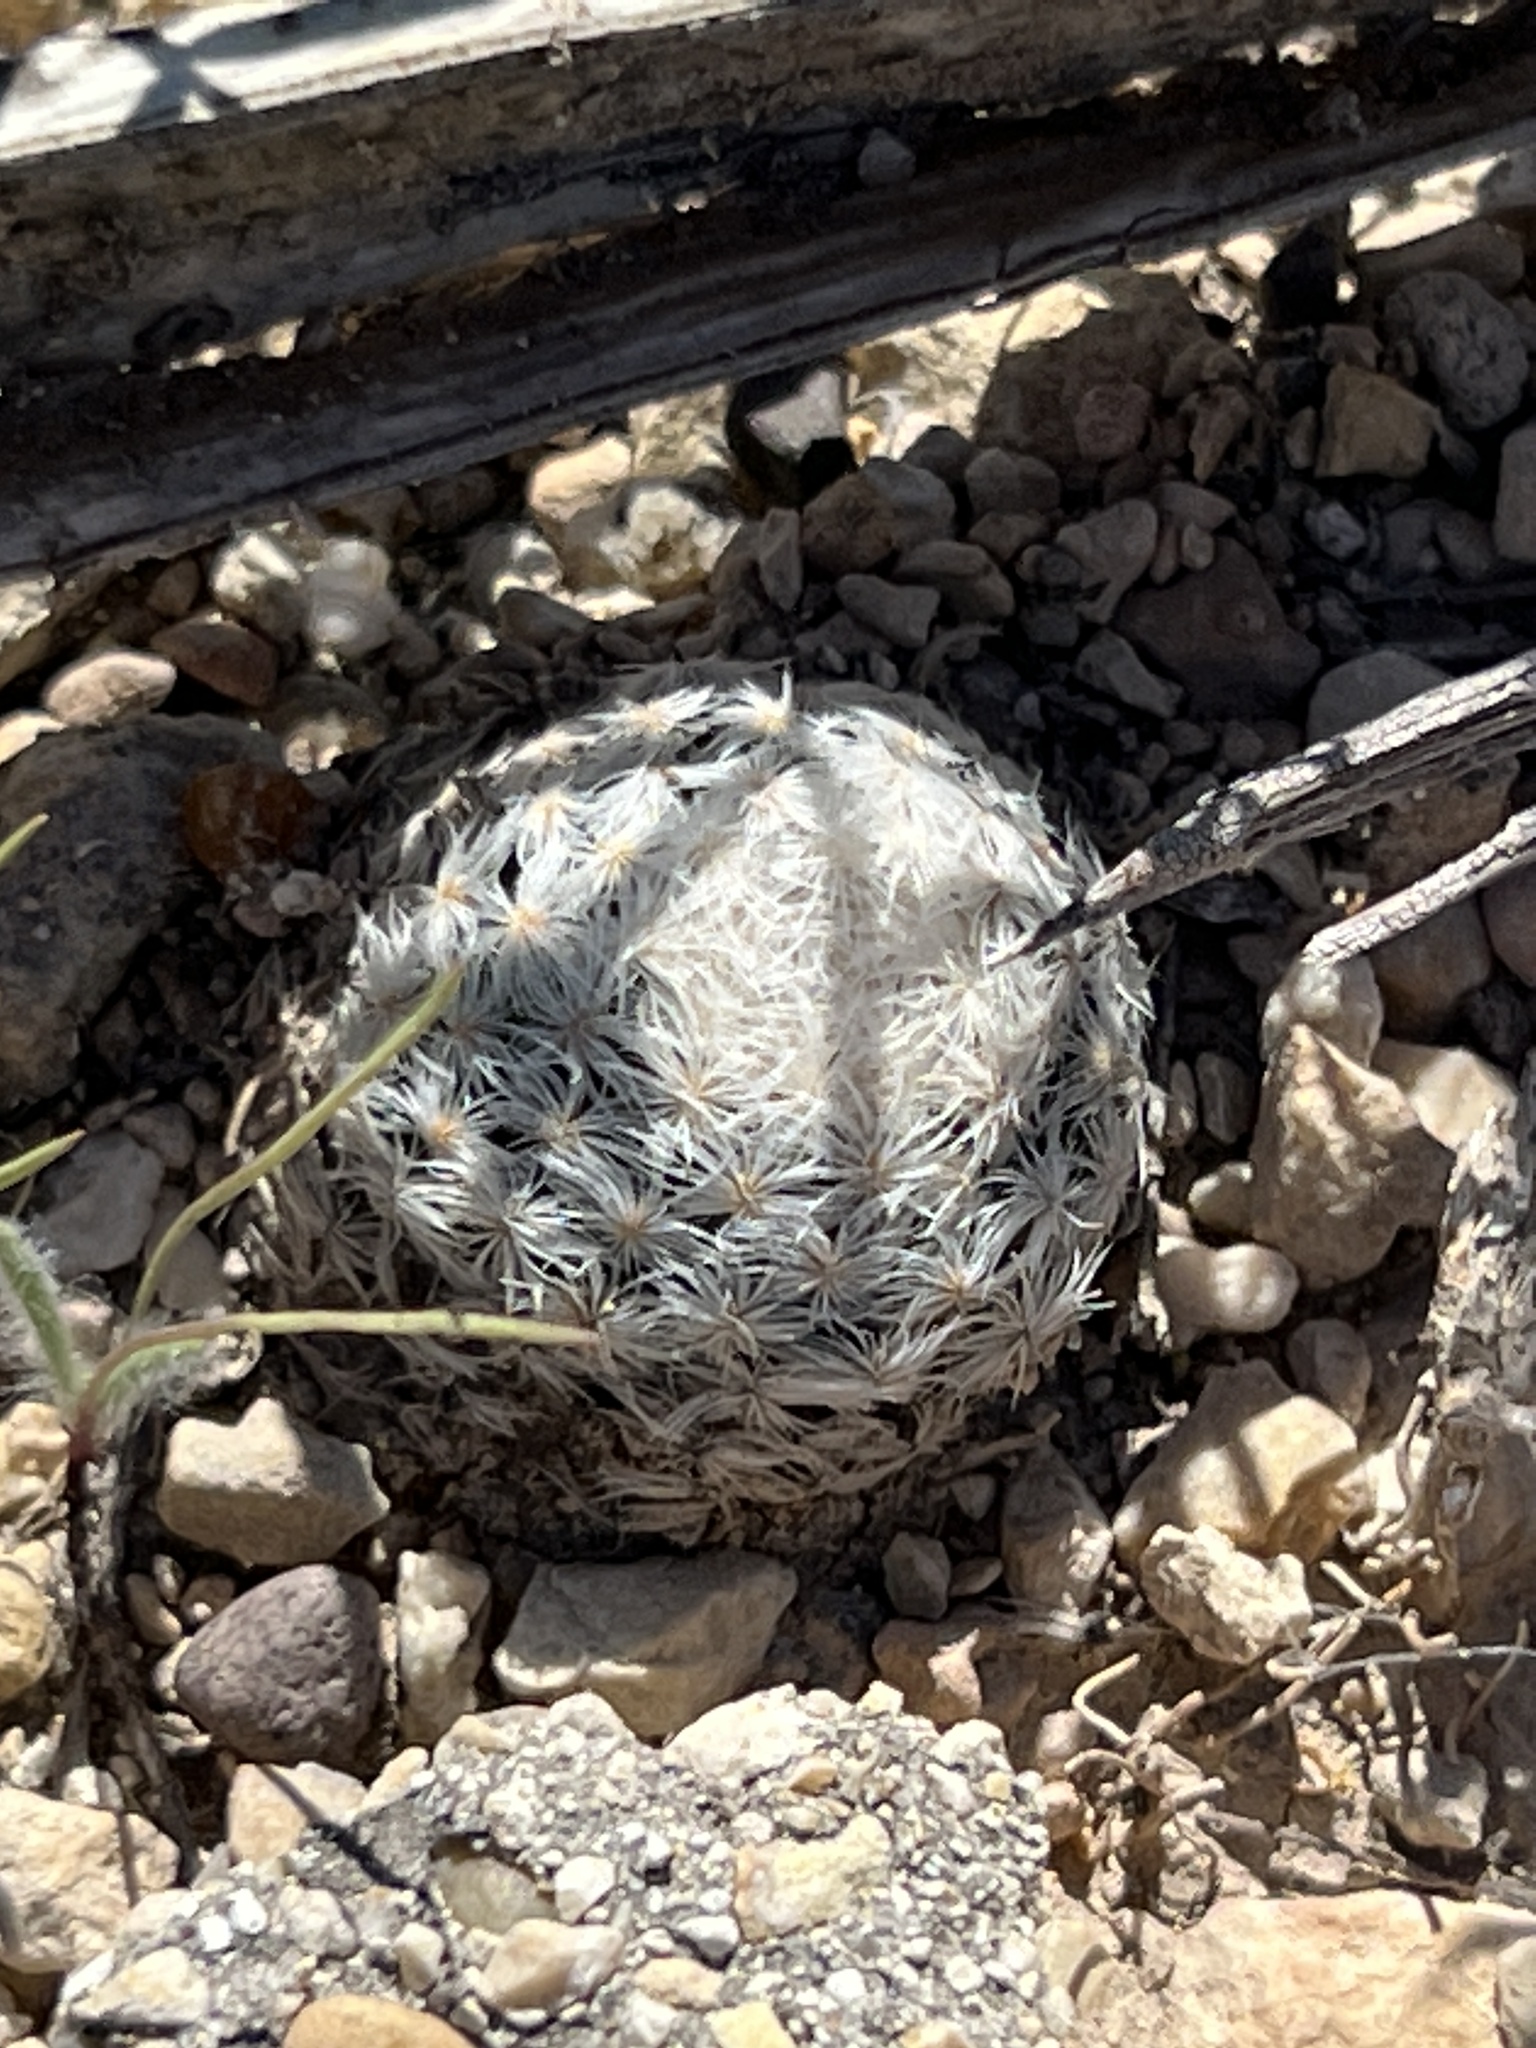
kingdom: Plantae
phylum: Tracheophyta
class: Magnoliopsida
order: Caryophyllales
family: Cactaceae
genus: Mammillaria
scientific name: Mammillaria lasiacantha
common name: Lace-spine nipple cactus
